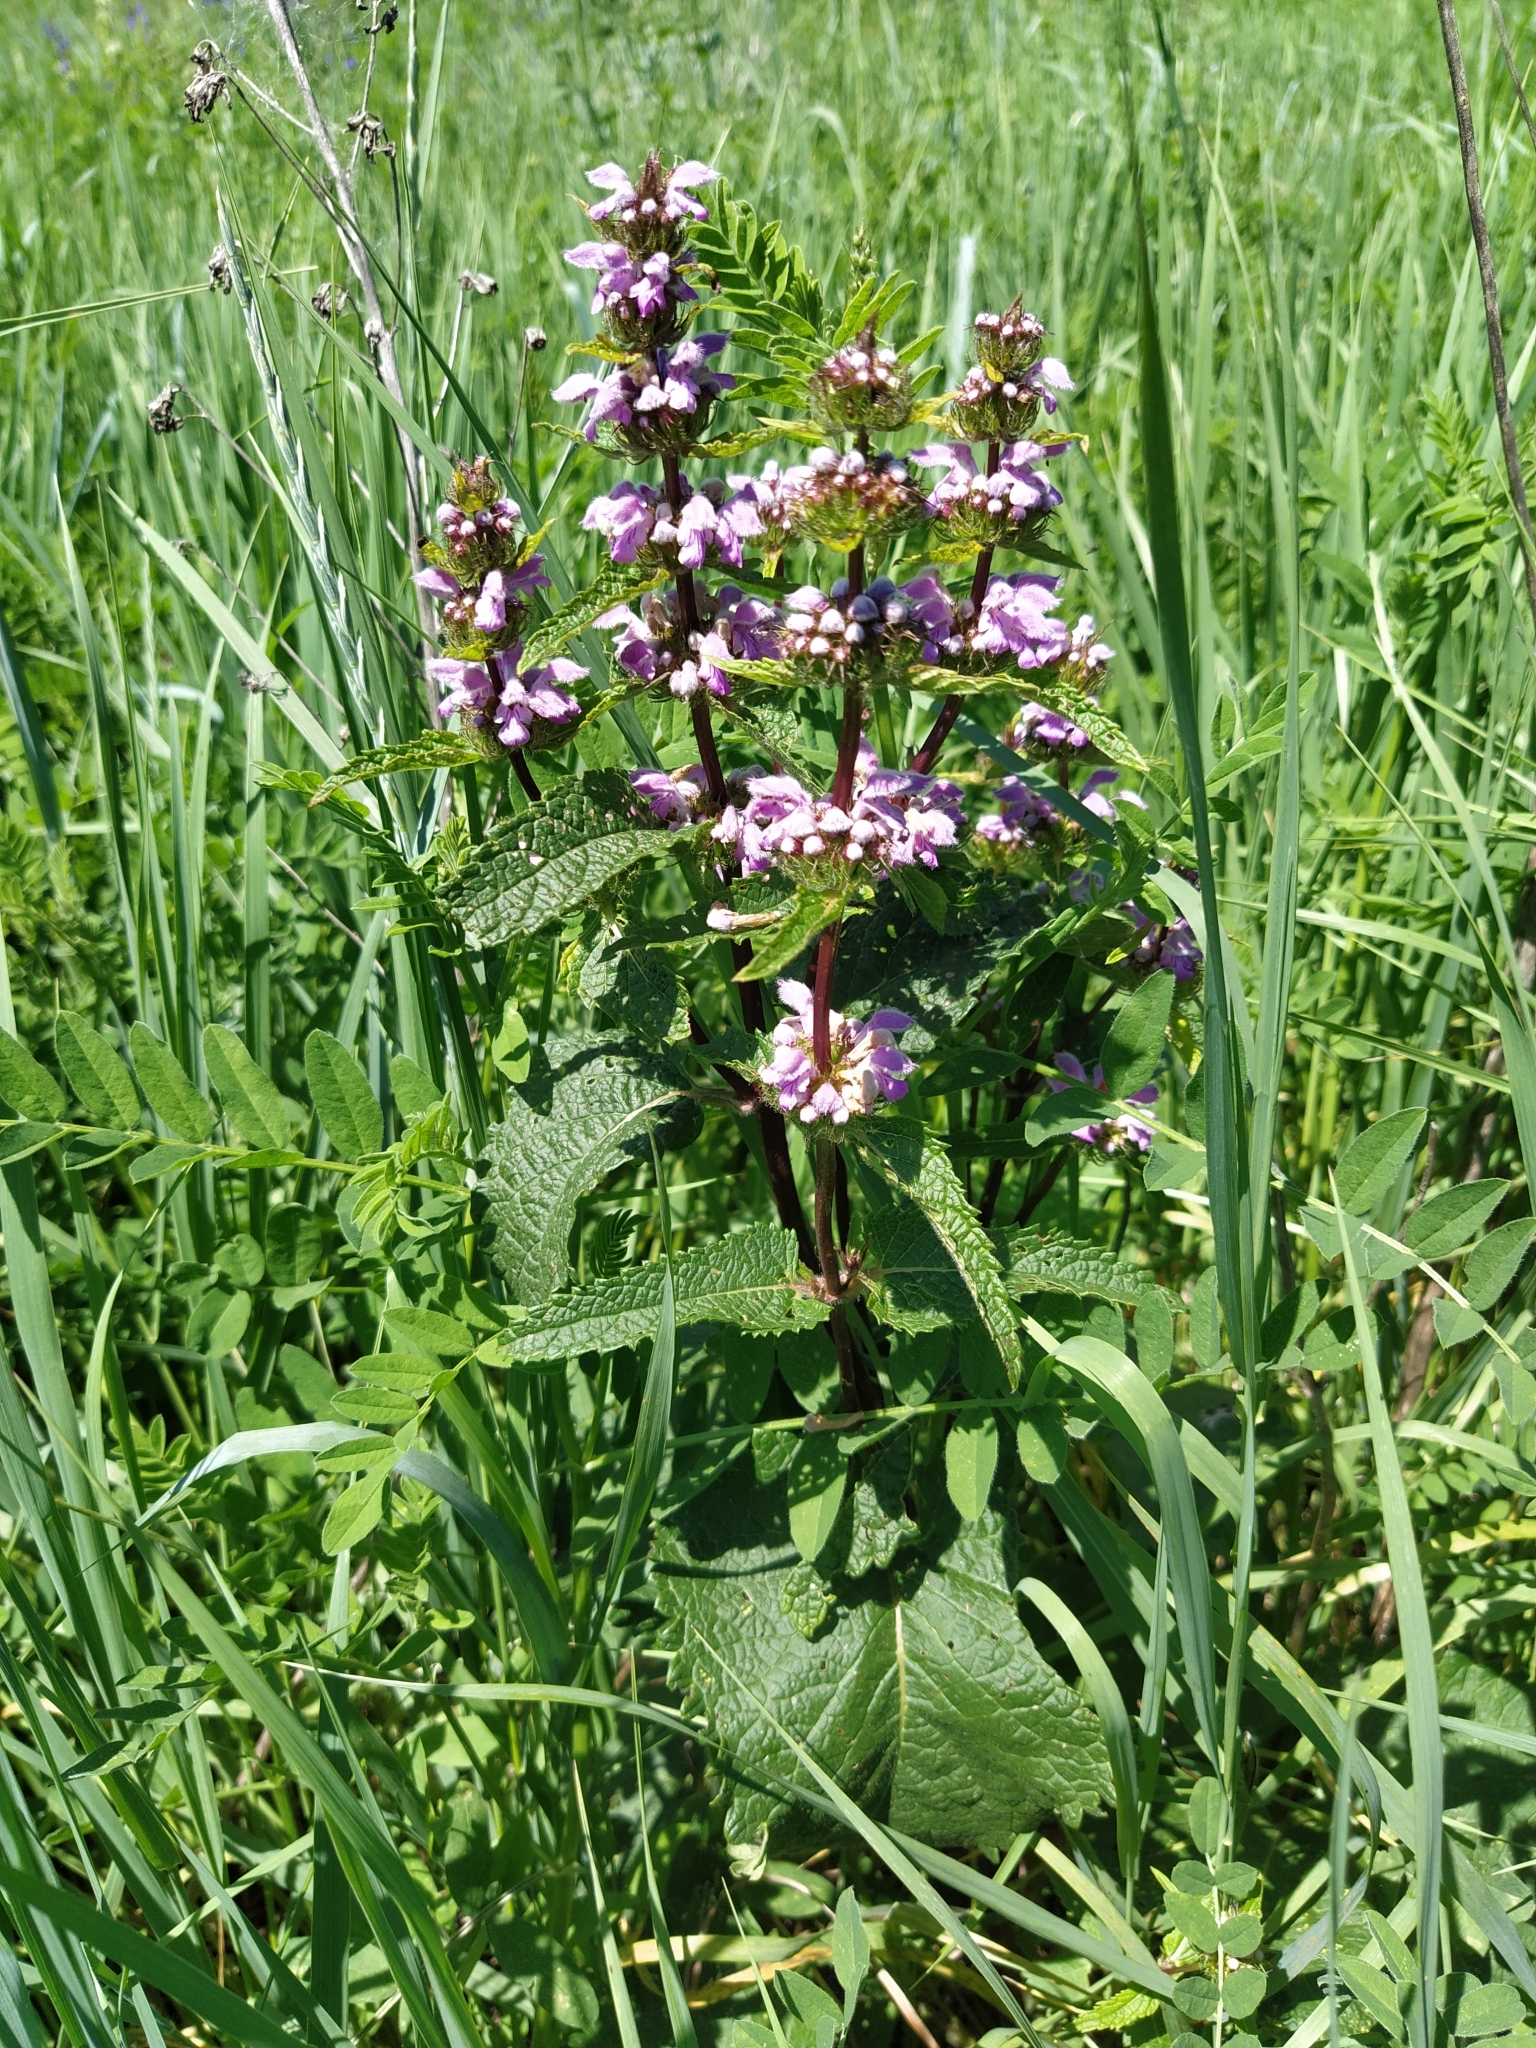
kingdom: Plantae
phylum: Tracheophyta
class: Magnoliopsida
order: Lamiales
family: Lamiaceae
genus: Phlomoides
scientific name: Phlomoides tuberosa
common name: Tuberous jerusalem sage
